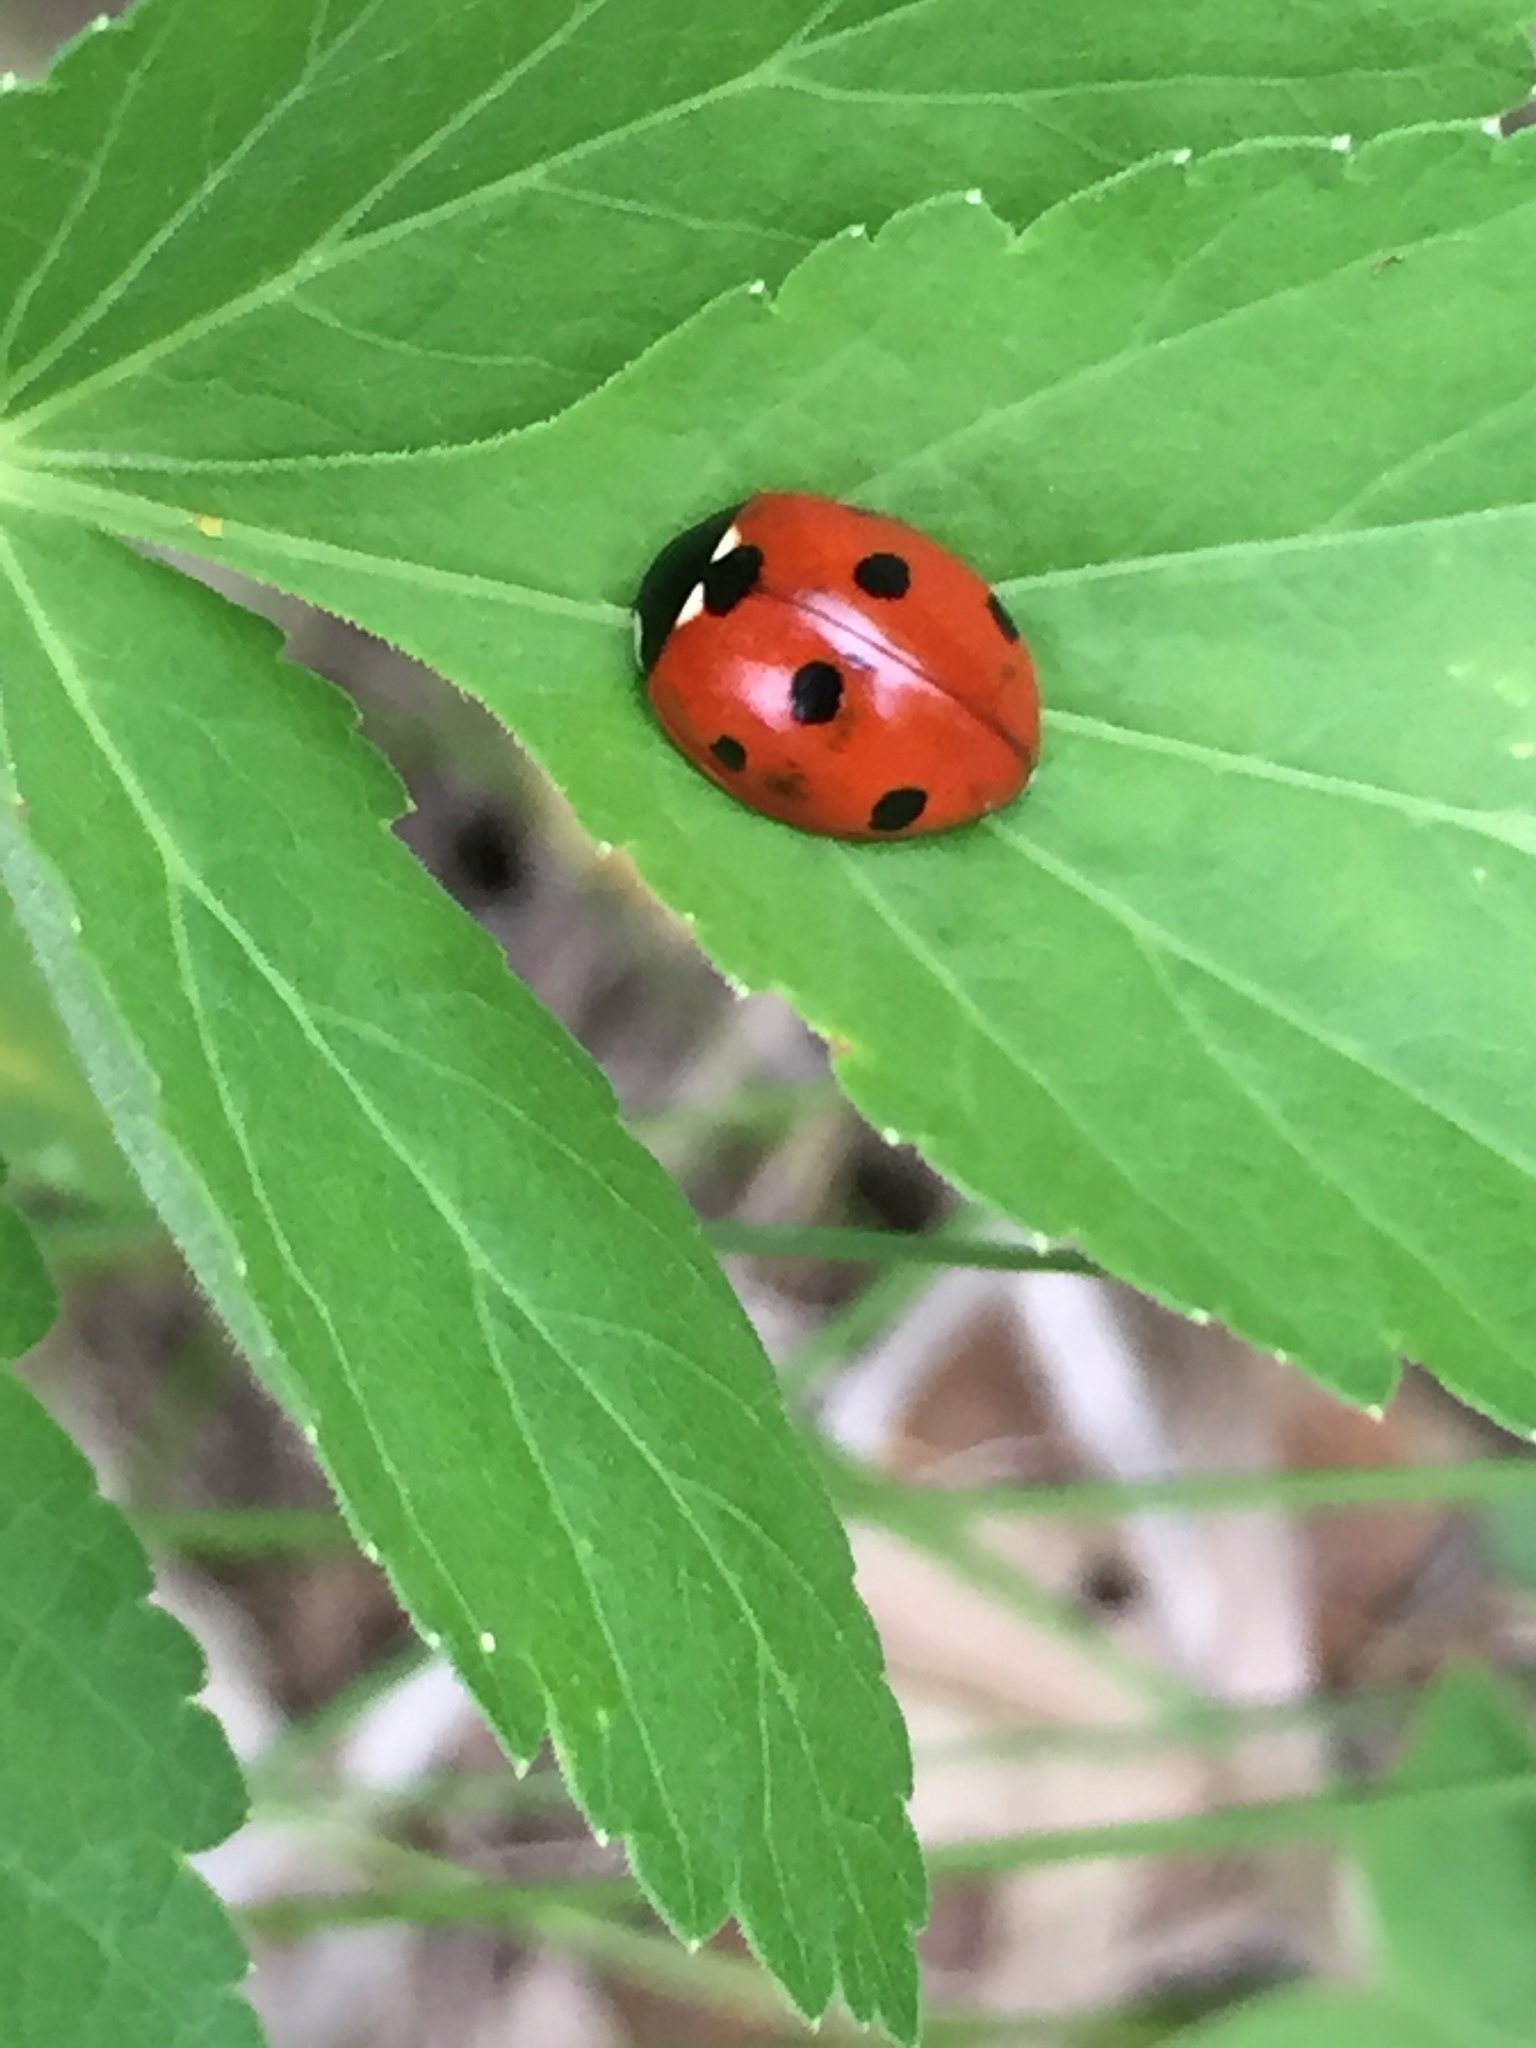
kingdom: Animalia
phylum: Arthropoda
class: Insecta
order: Coleoptera
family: Coccinellidae
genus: Coccinella
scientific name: Coccinella septempunctata
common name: Sevenspotted lady beetle
